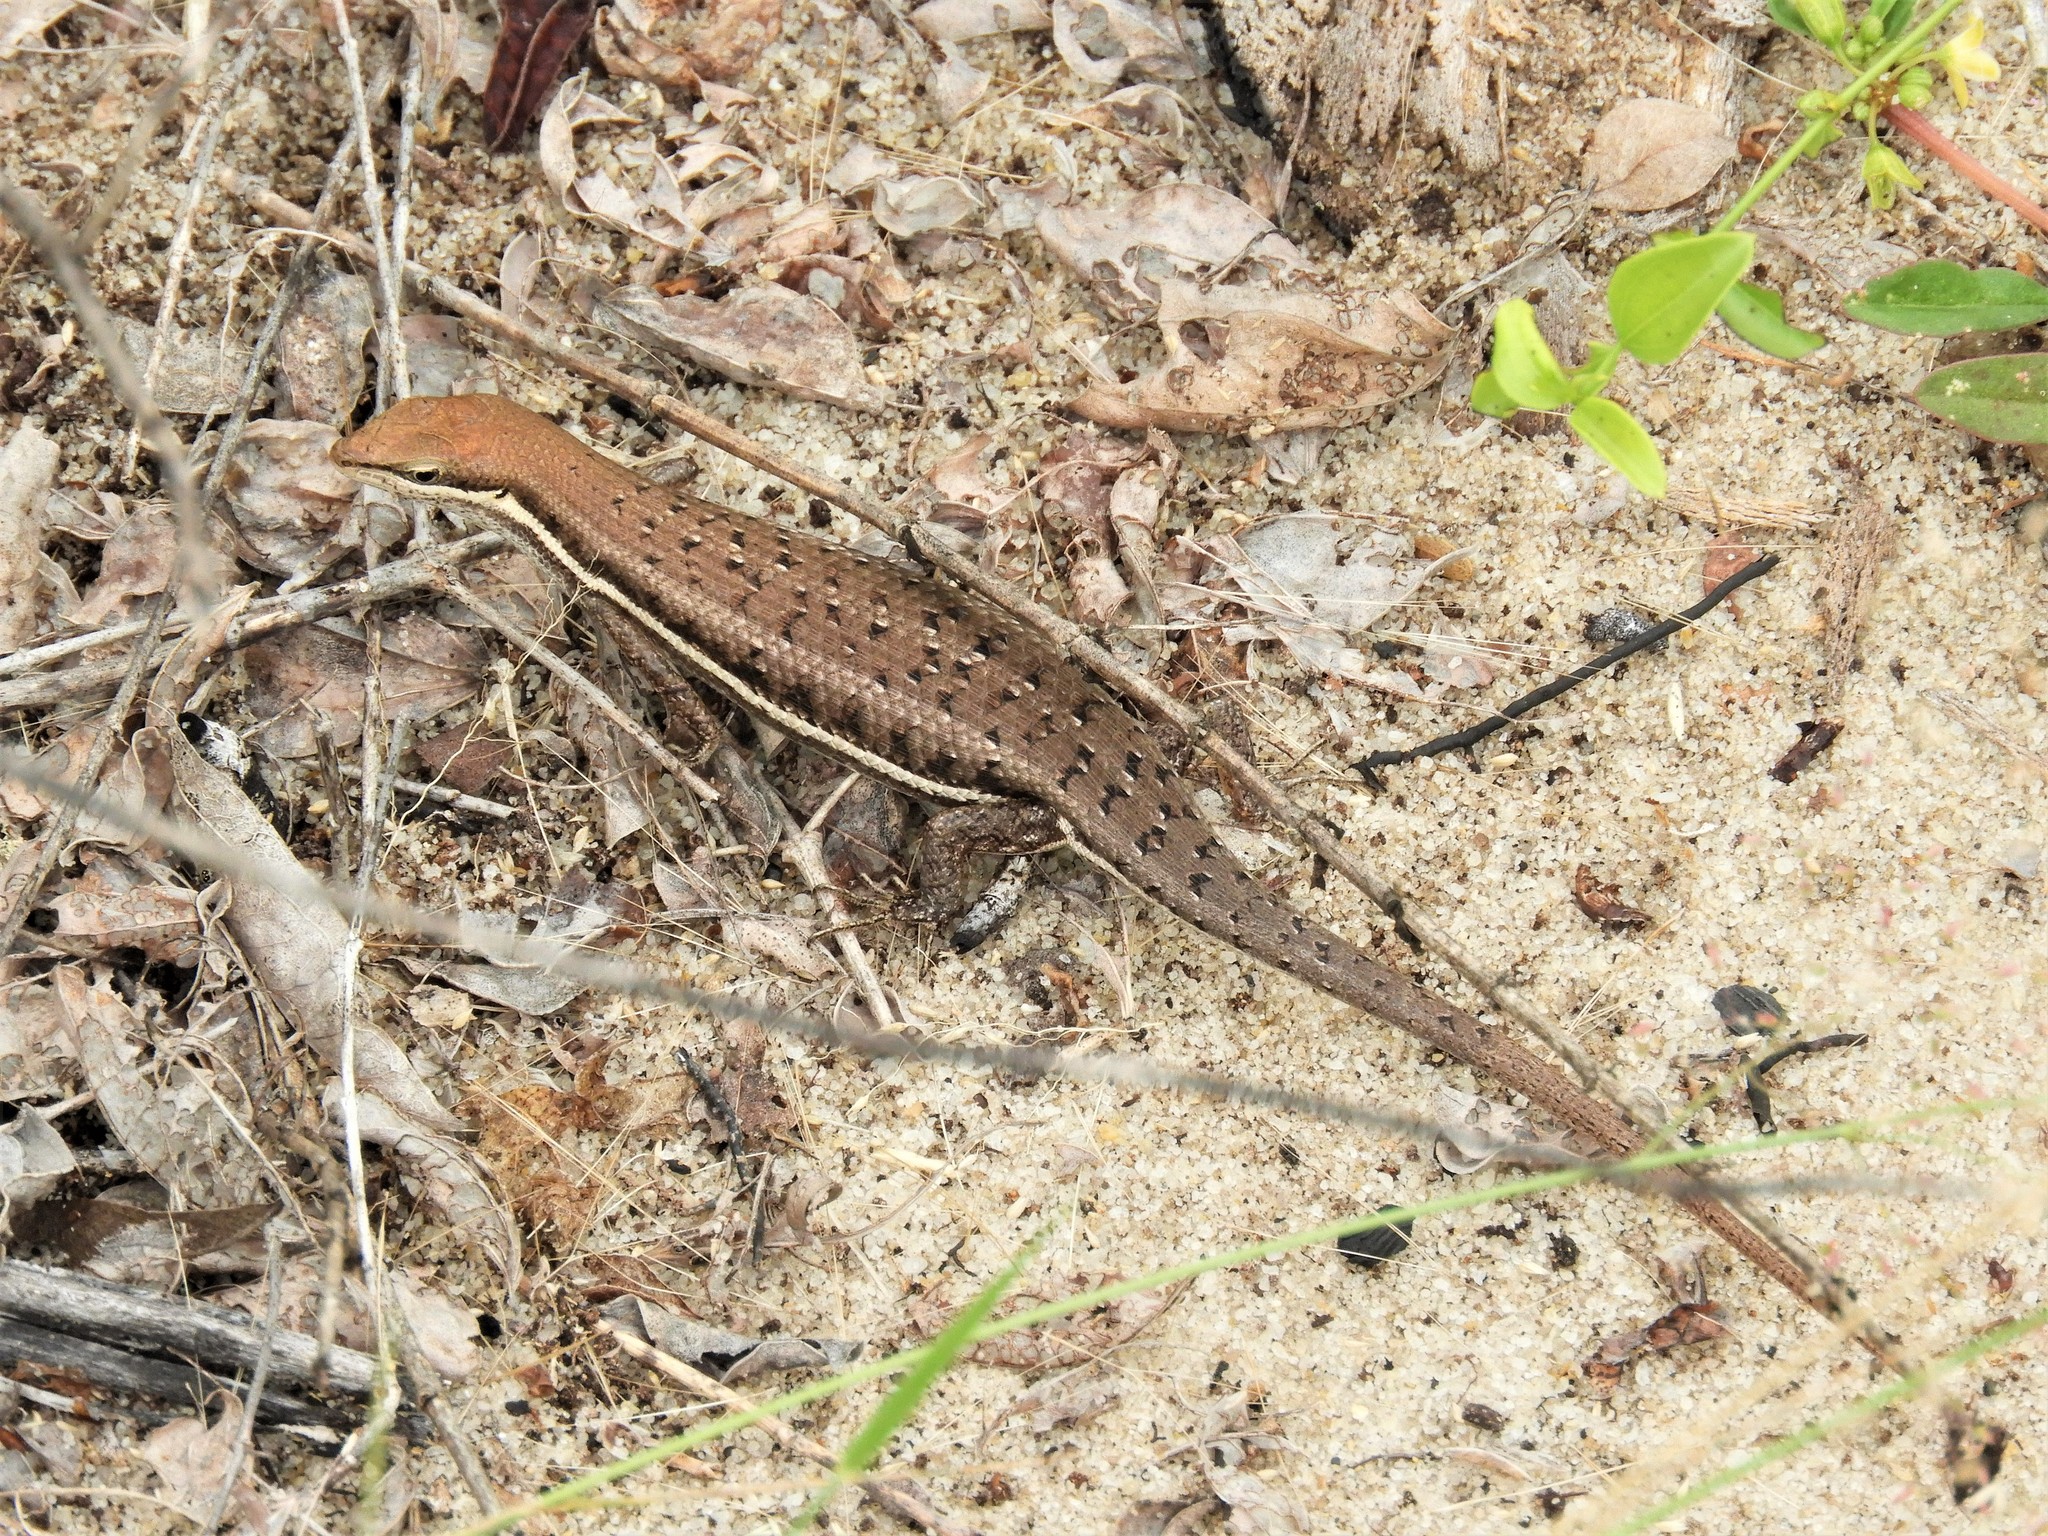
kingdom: Animalia
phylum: Chordata
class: Squamata
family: Scincidae
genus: Trachylepis
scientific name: Trachylepis varia
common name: Eastern variable skink
